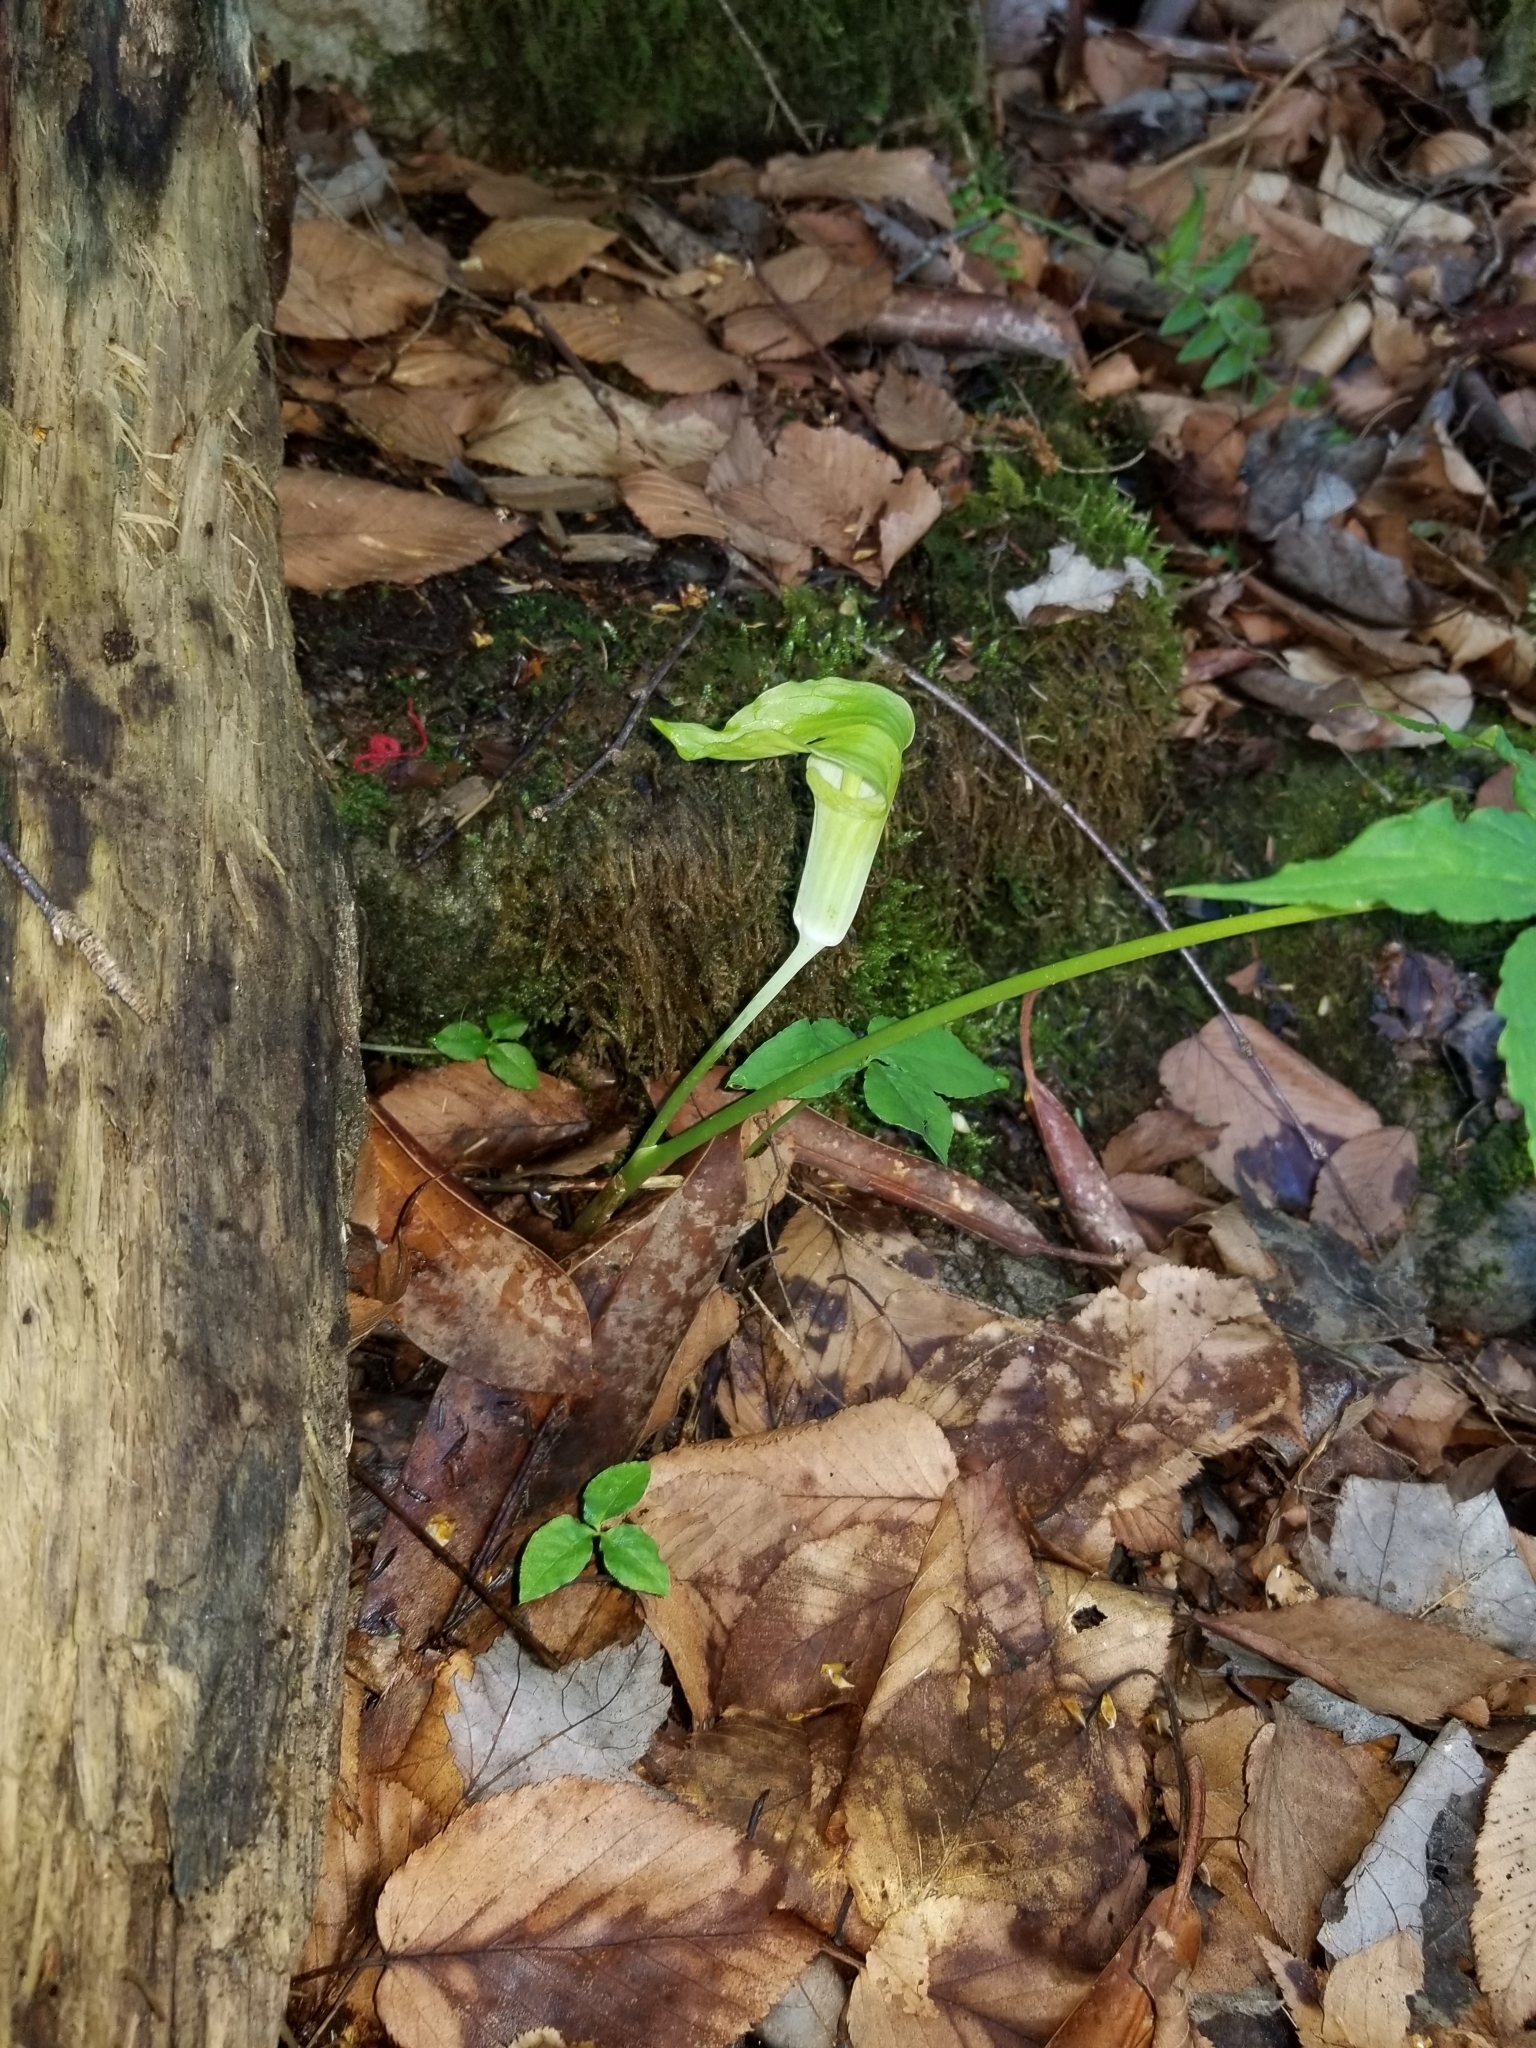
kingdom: Plantae
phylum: Tracheophyta
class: Liliopsida
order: Alismatales
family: Araceae
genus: Arisaema
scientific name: Arisaema triphyllum
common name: Jack-in-the-pulpit
